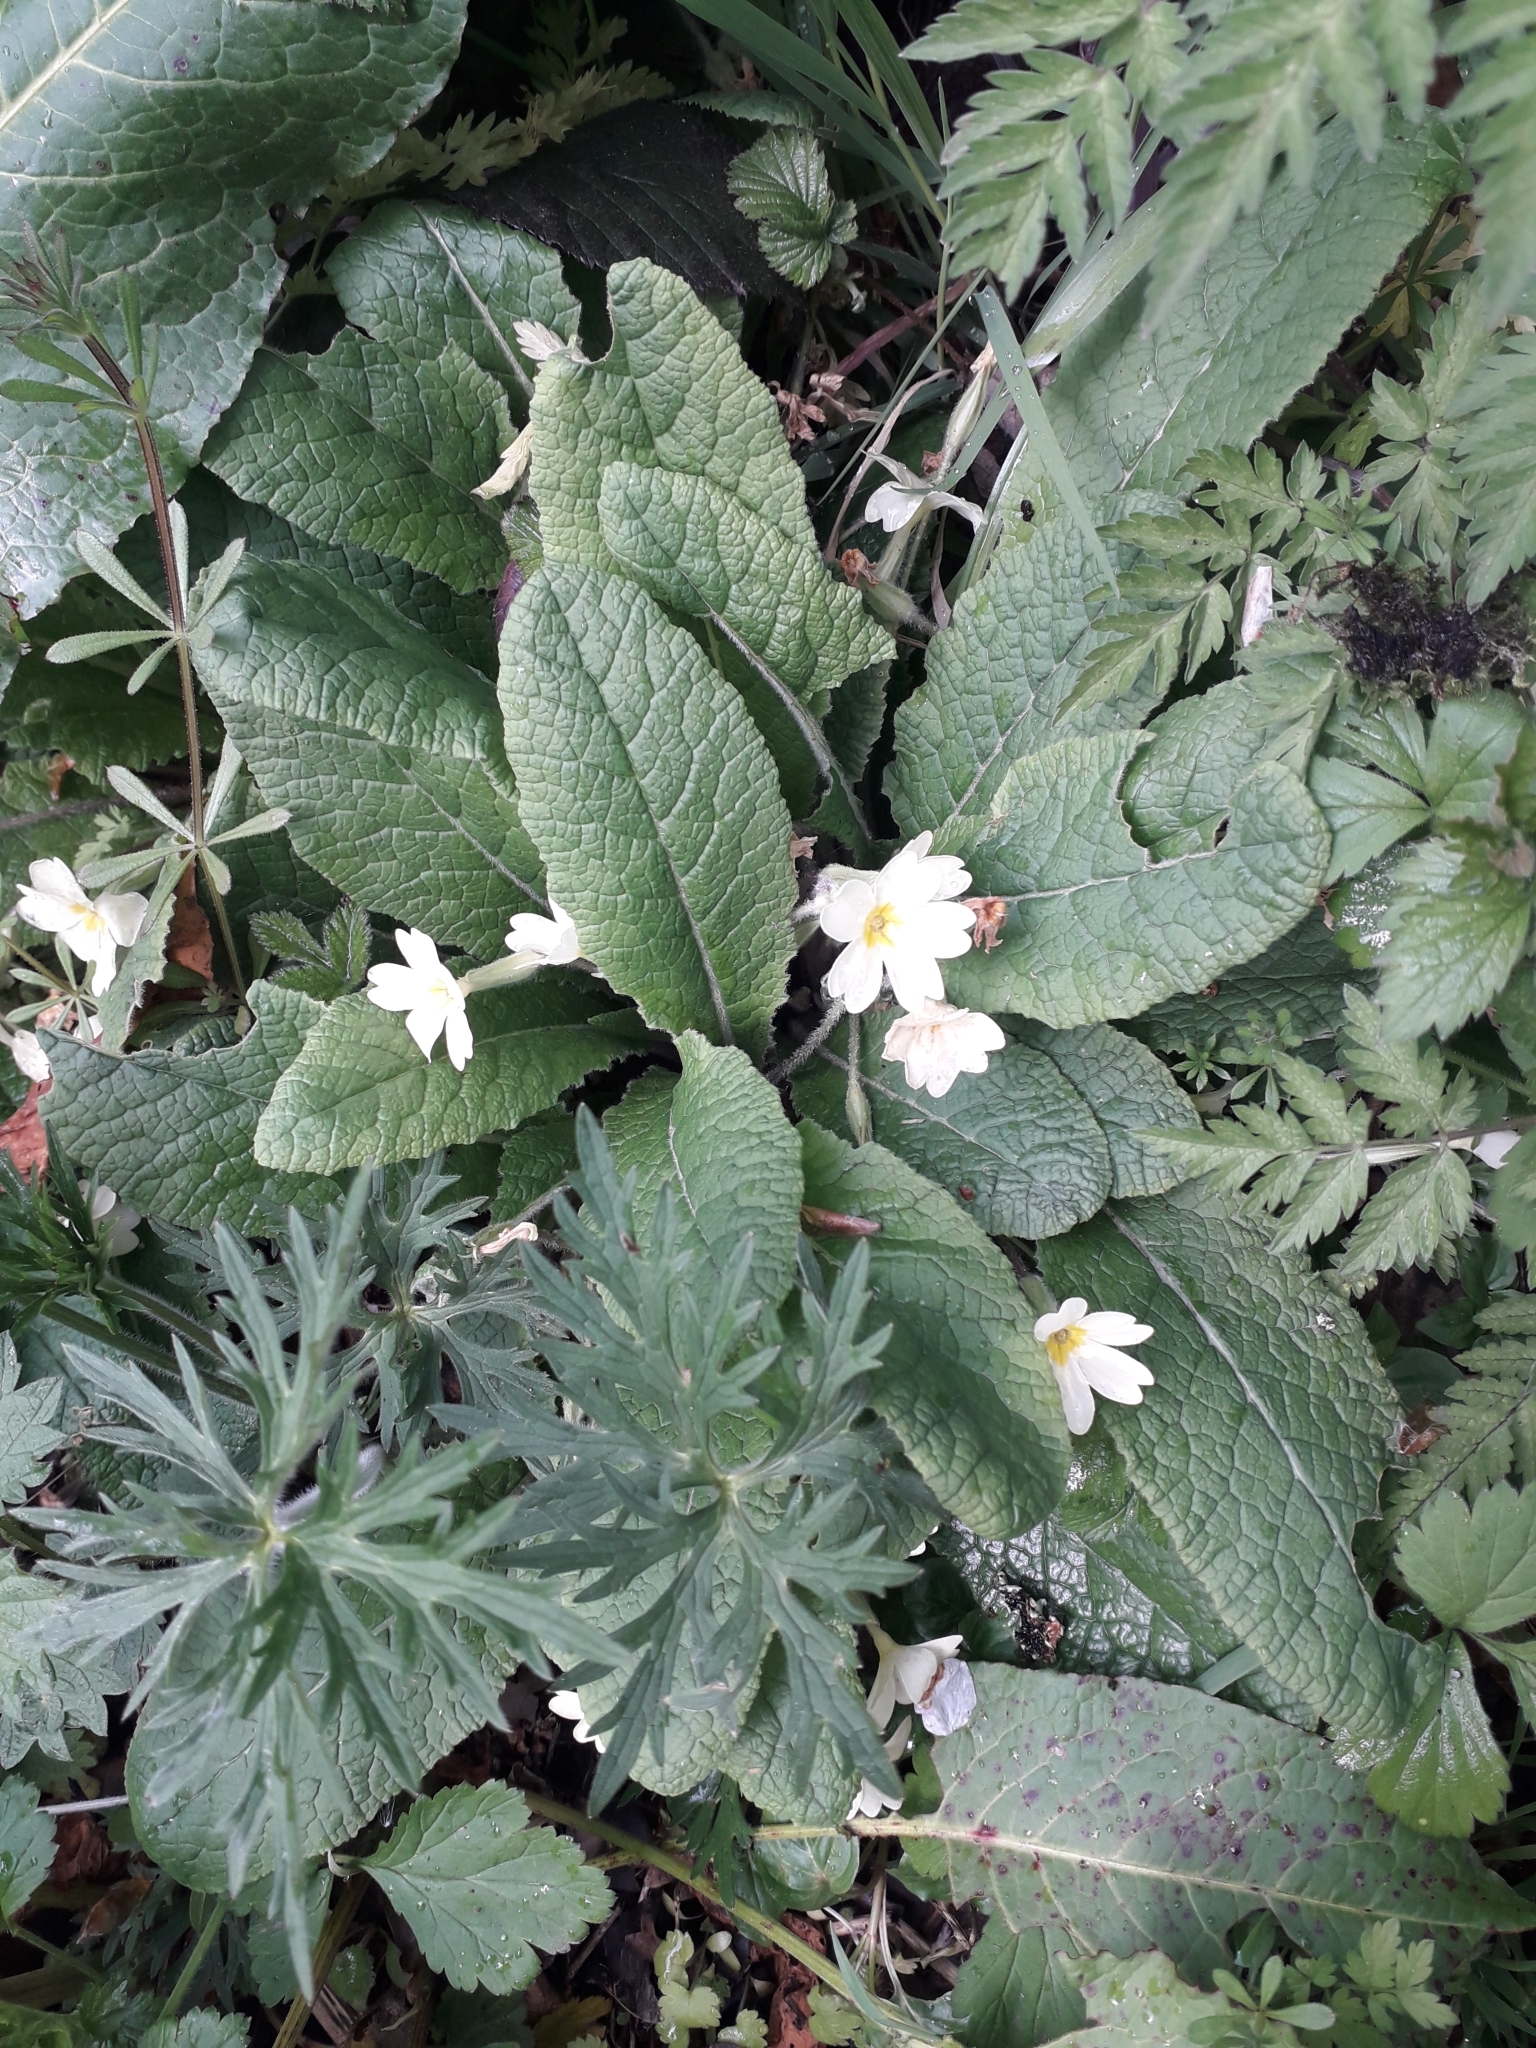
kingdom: Plantae
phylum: Tracheophyta
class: Magnoliopsida
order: Ericales
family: Primulaceae
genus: Primula
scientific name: Primula vulgaris
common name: Primrose
